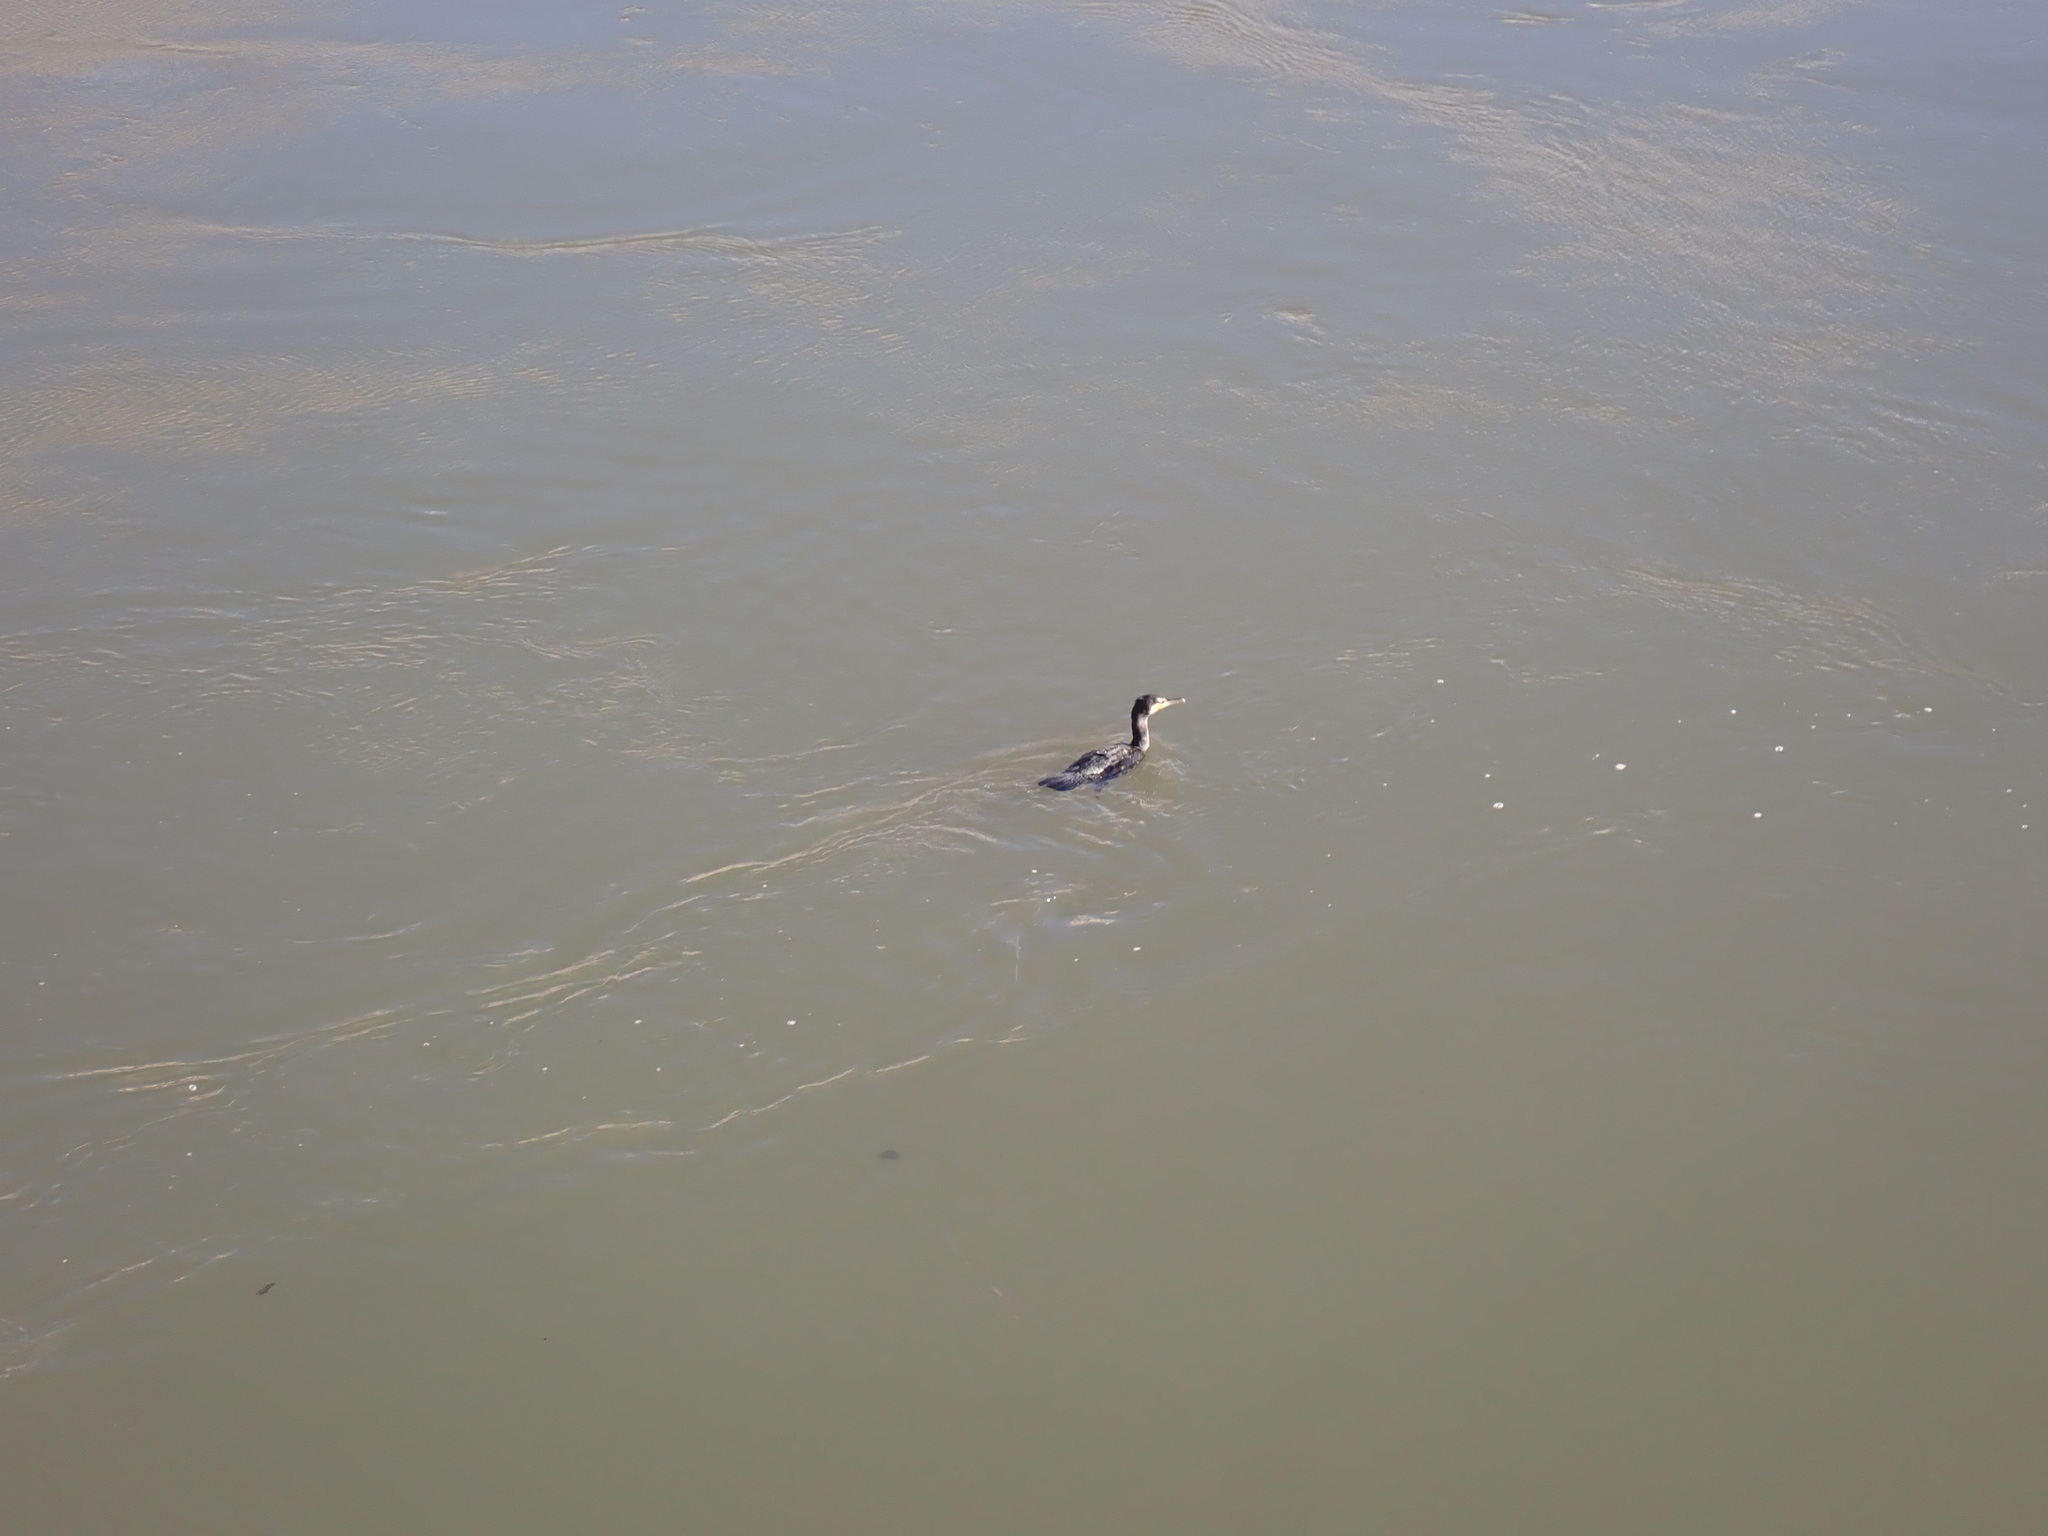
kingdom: Animalia
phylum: Chordata
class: Aves
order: Suliformes
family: Phalacrocoracidae
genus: Phalacrocorax
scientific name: Phalacrocorax carbo
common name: Great cormorant
